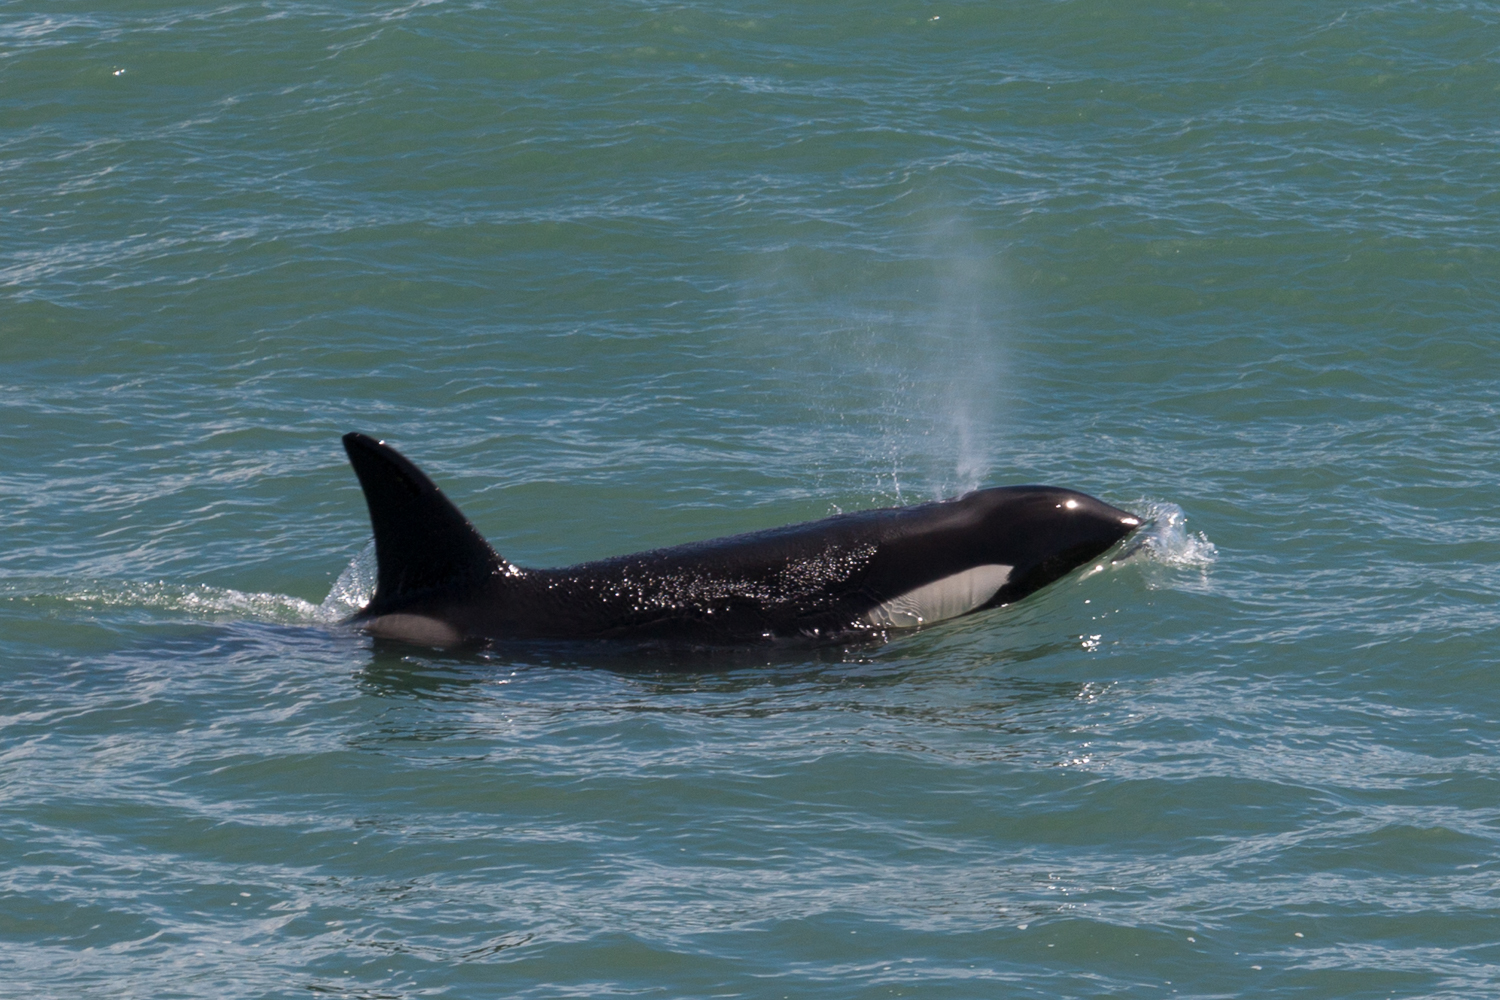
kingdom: Animalia
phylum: Chordata
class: Mammalia
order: Cetacea
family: Delphinidae
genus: Orcinus
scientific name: Orcinus orca
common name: Killer whale
